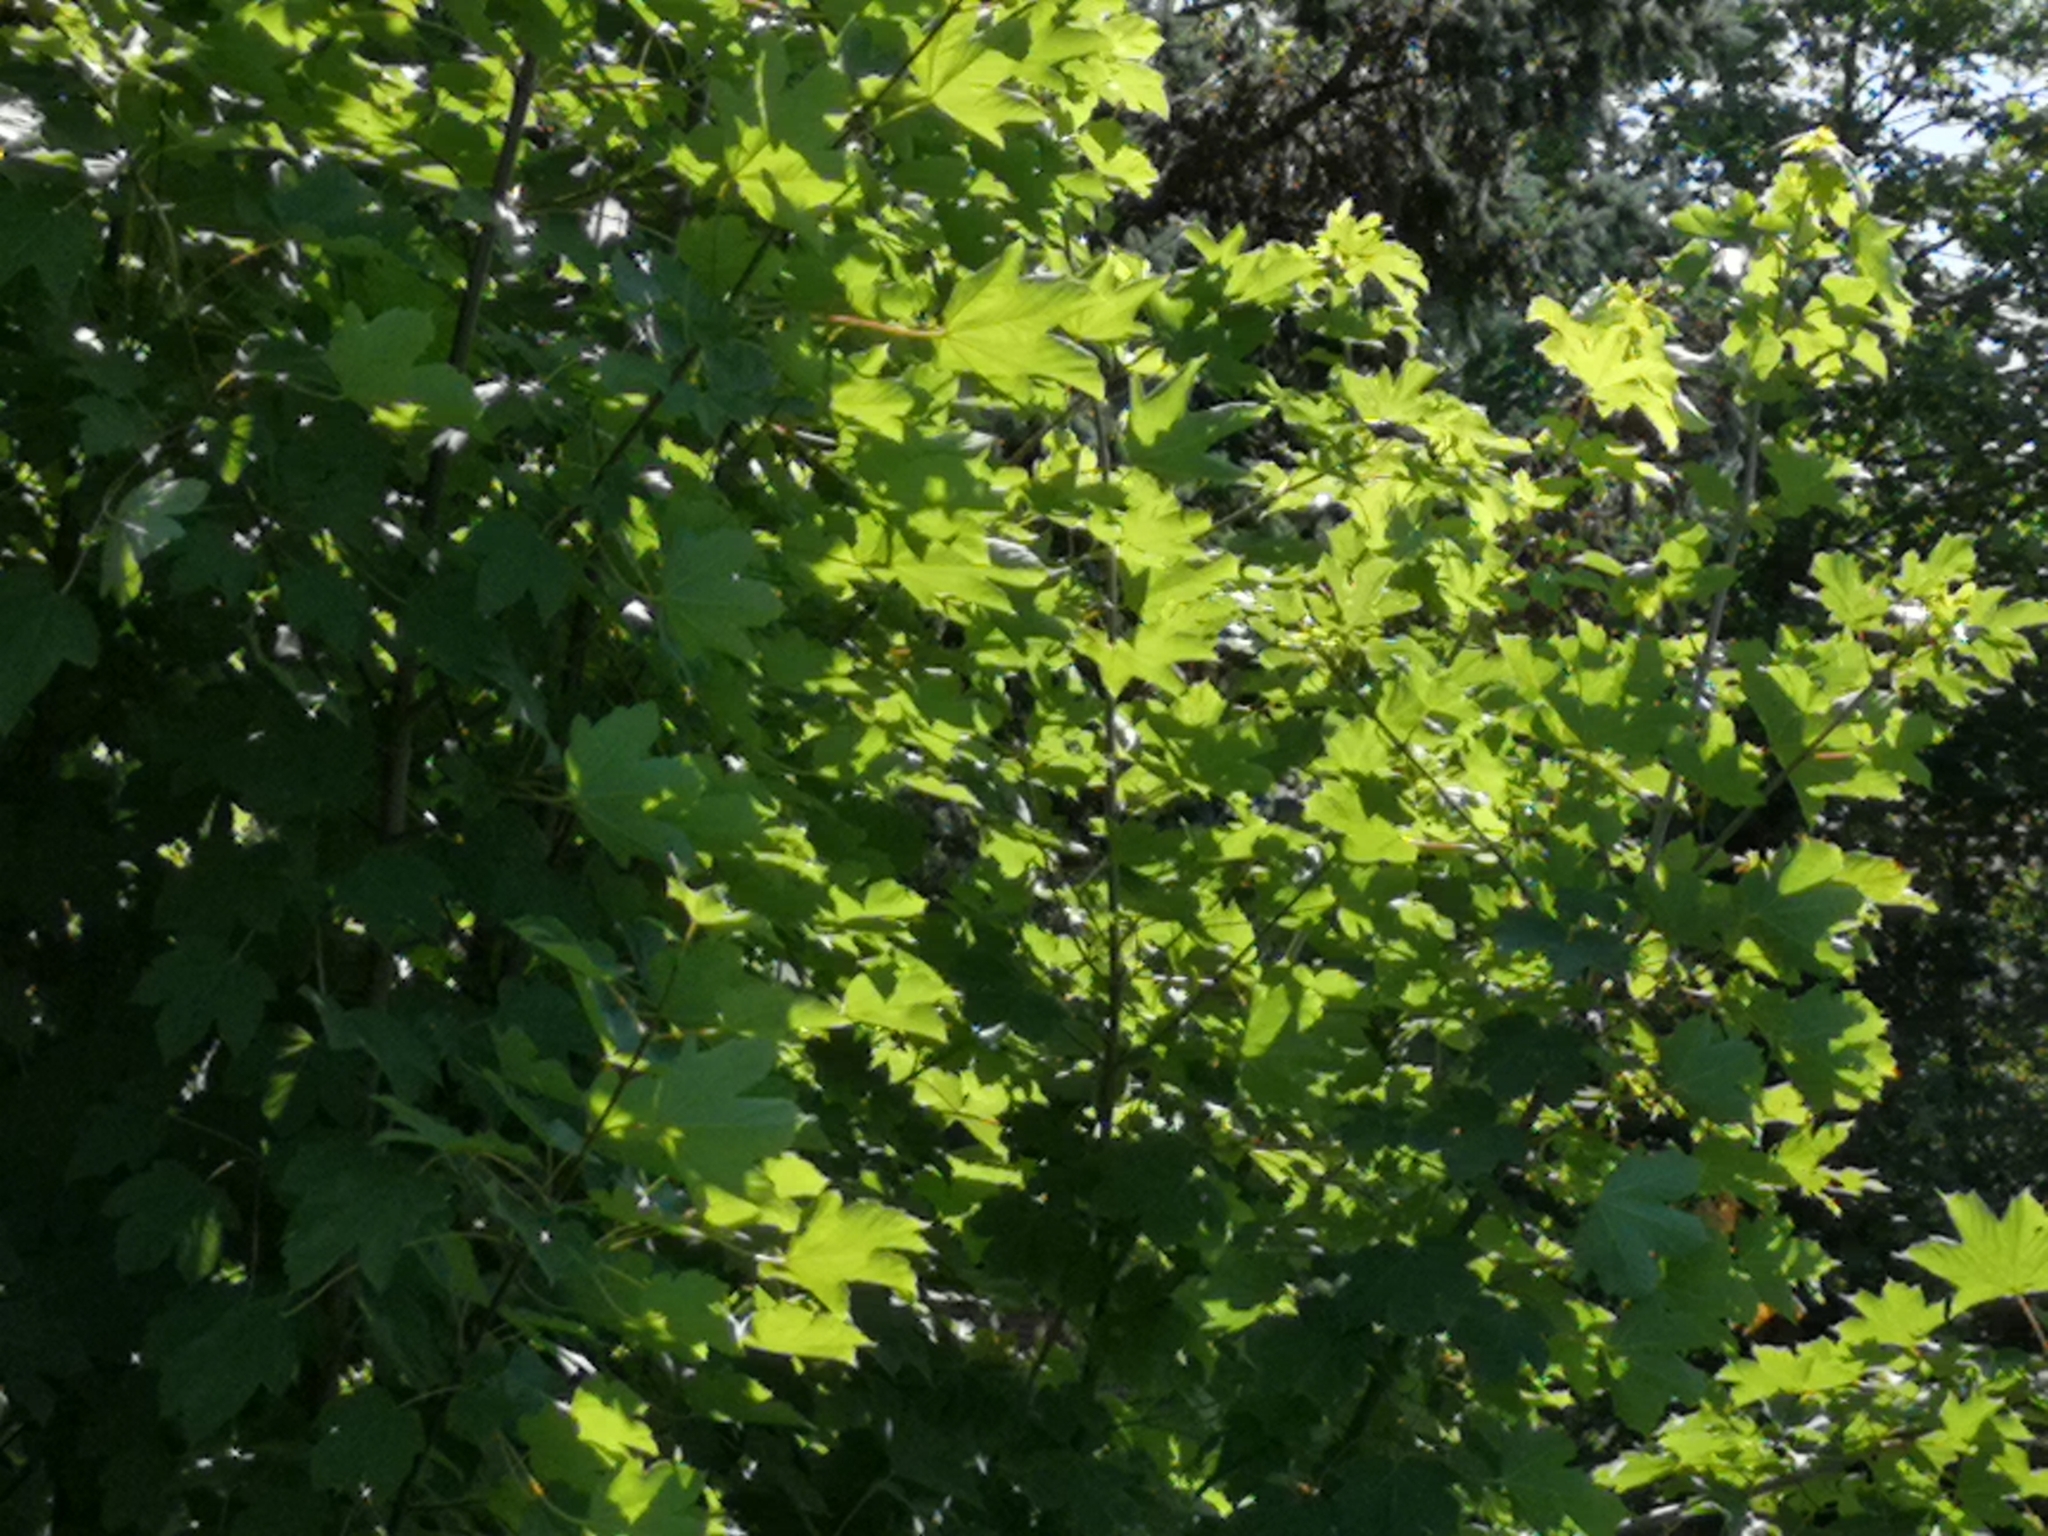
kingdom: Plantae
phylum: Tracheophyta
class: Magnoliopsida
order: Sapindales
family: Sapindaceae
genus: Acer
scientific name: Acer pseudoplatanus
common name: Sycamore
